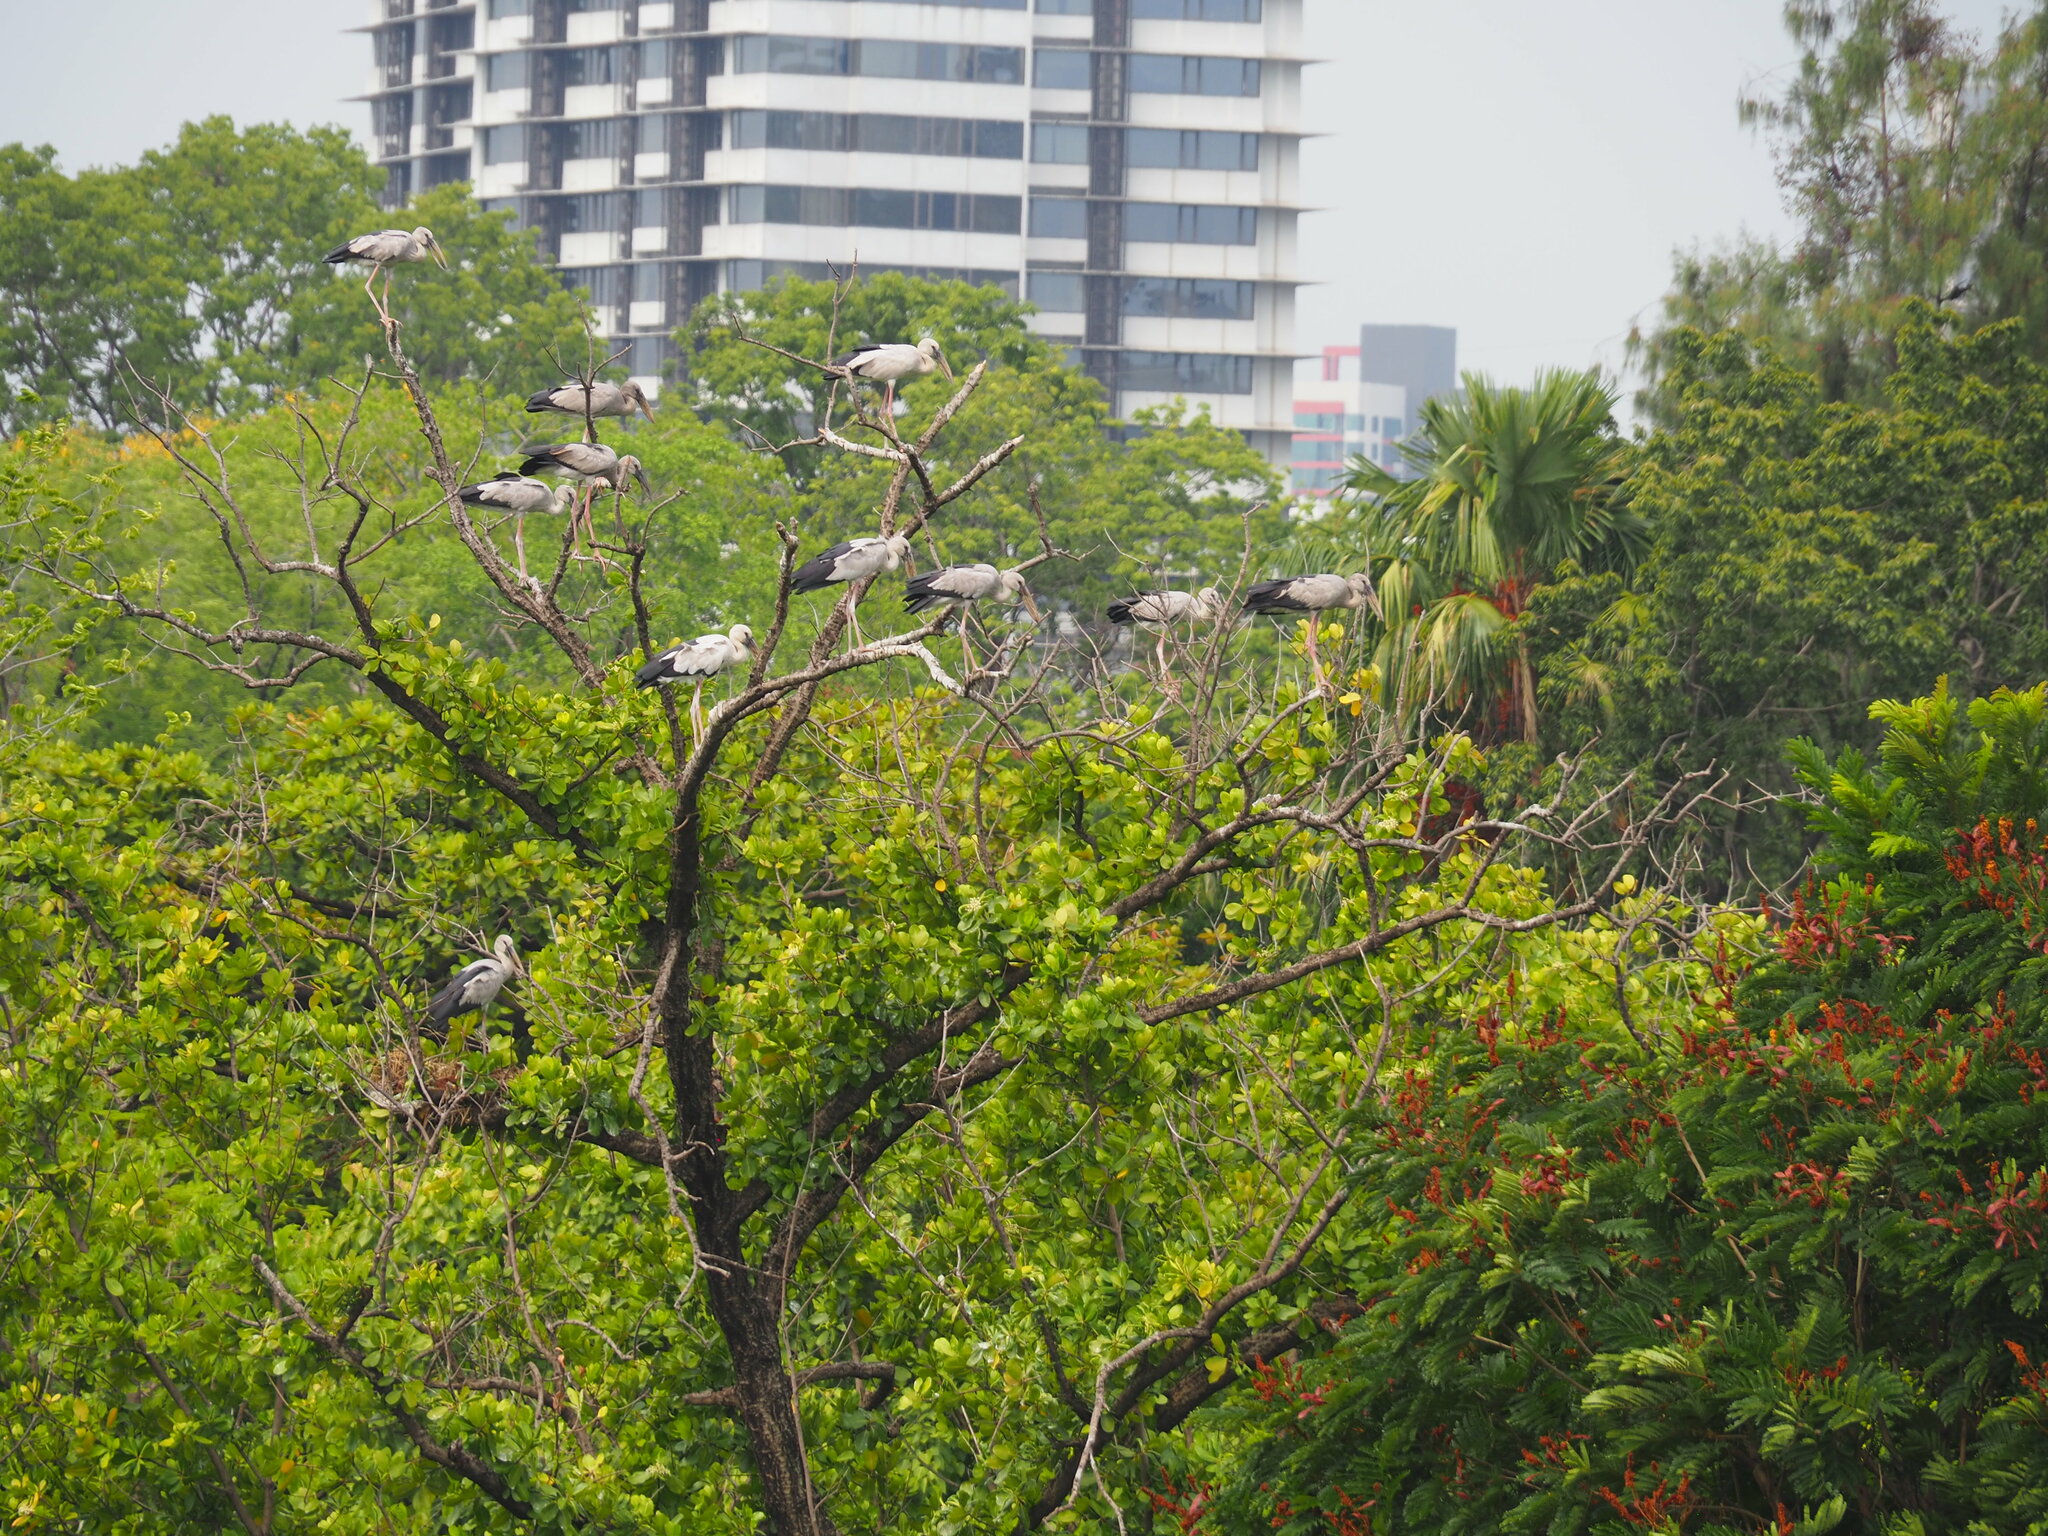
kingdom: Animalia
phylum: Chordata
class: Aves
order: Ciconiiformes
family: Ciconiidae
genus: Anastomus
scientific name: Anastomus oscitans
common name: Asian openbill
